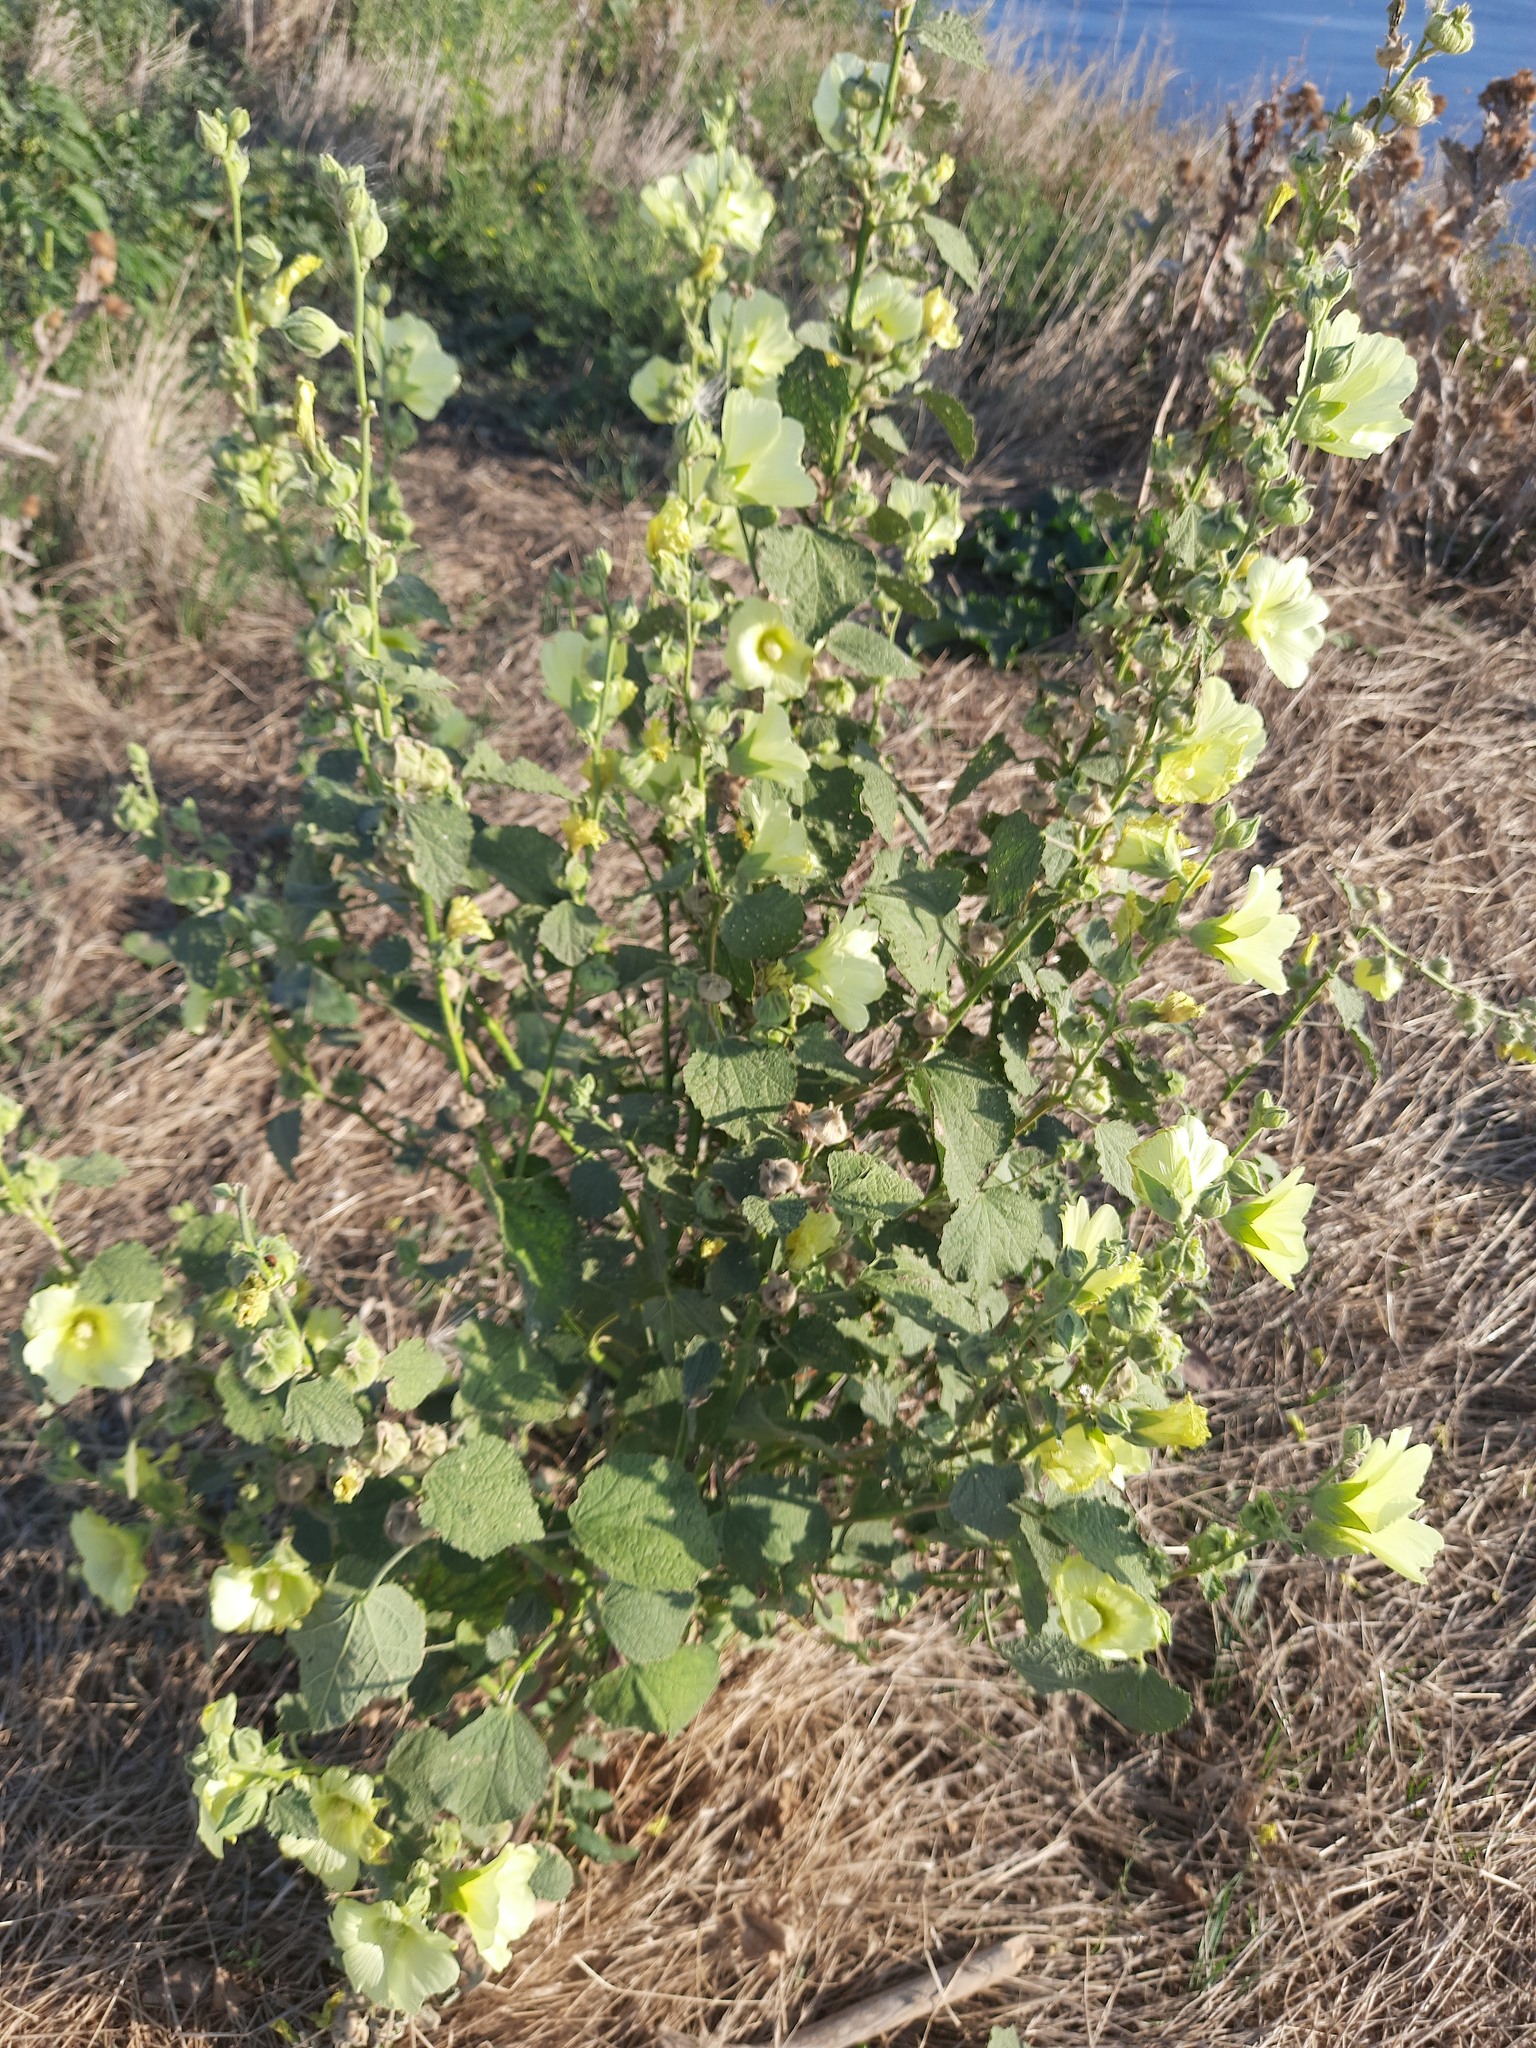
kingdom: Plantae
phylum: Tracheophyta
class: Magnoliopsida
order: Malvales
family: Malvaceae
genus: Alcea
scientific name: Alcea rugosa
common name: Russian hollyhock
